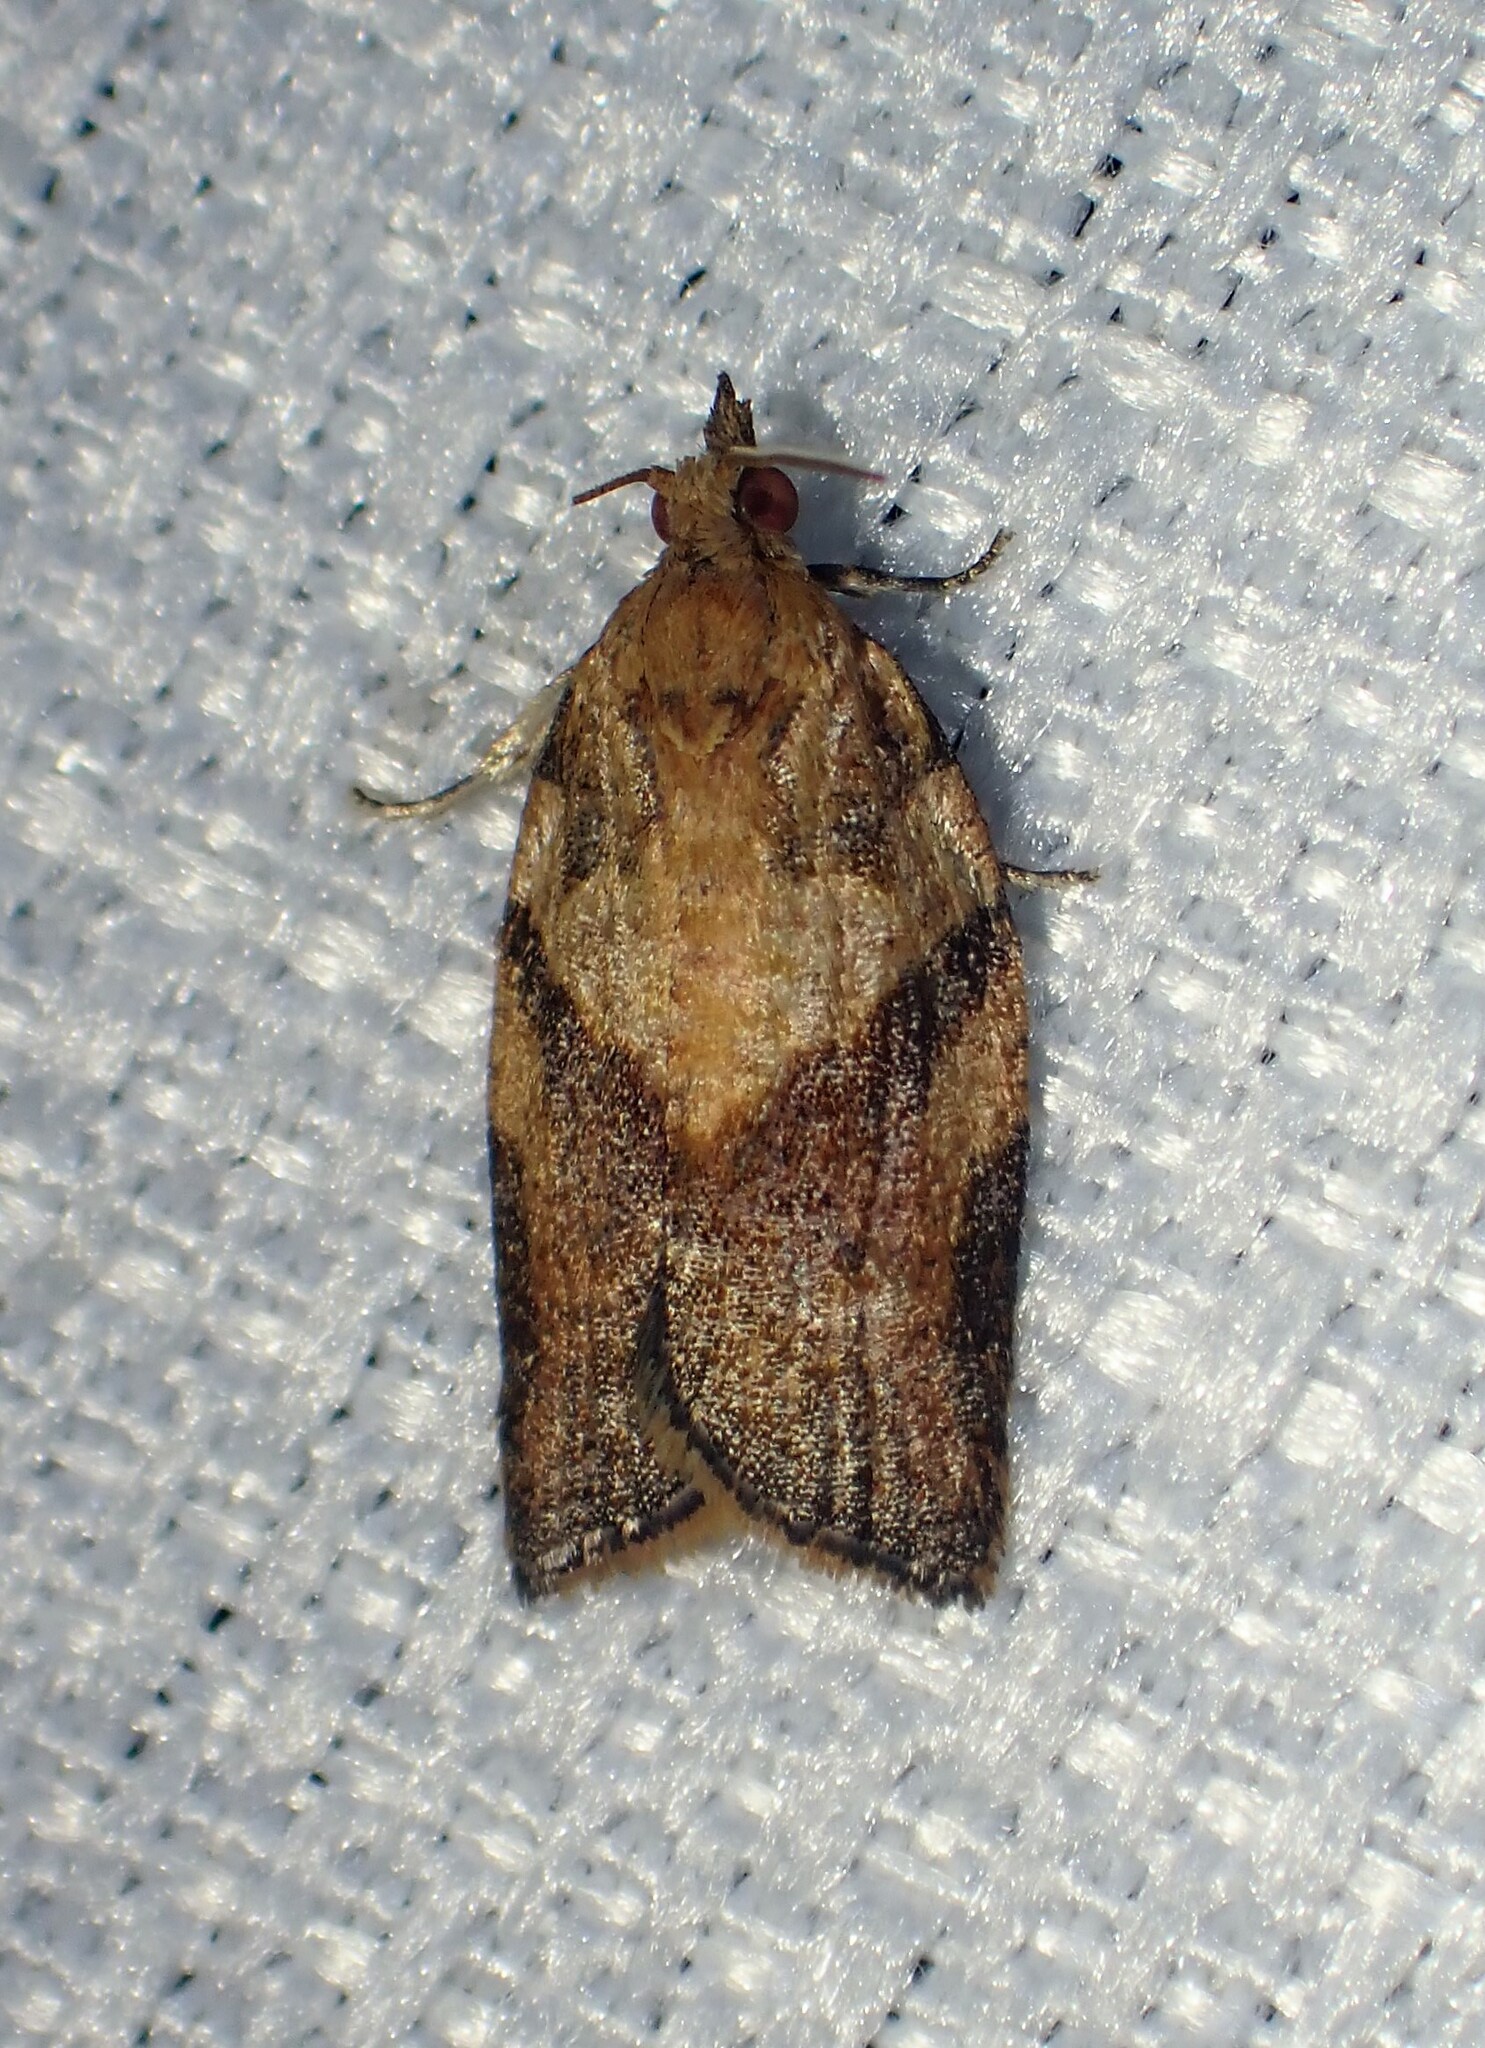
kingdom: Animalia
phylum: Arthropoda
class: Insecta
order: Lepidoptera
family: Tortricidae
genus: Epiphyas
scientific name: Epiphyas postvittana
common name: Light brown apple moth
